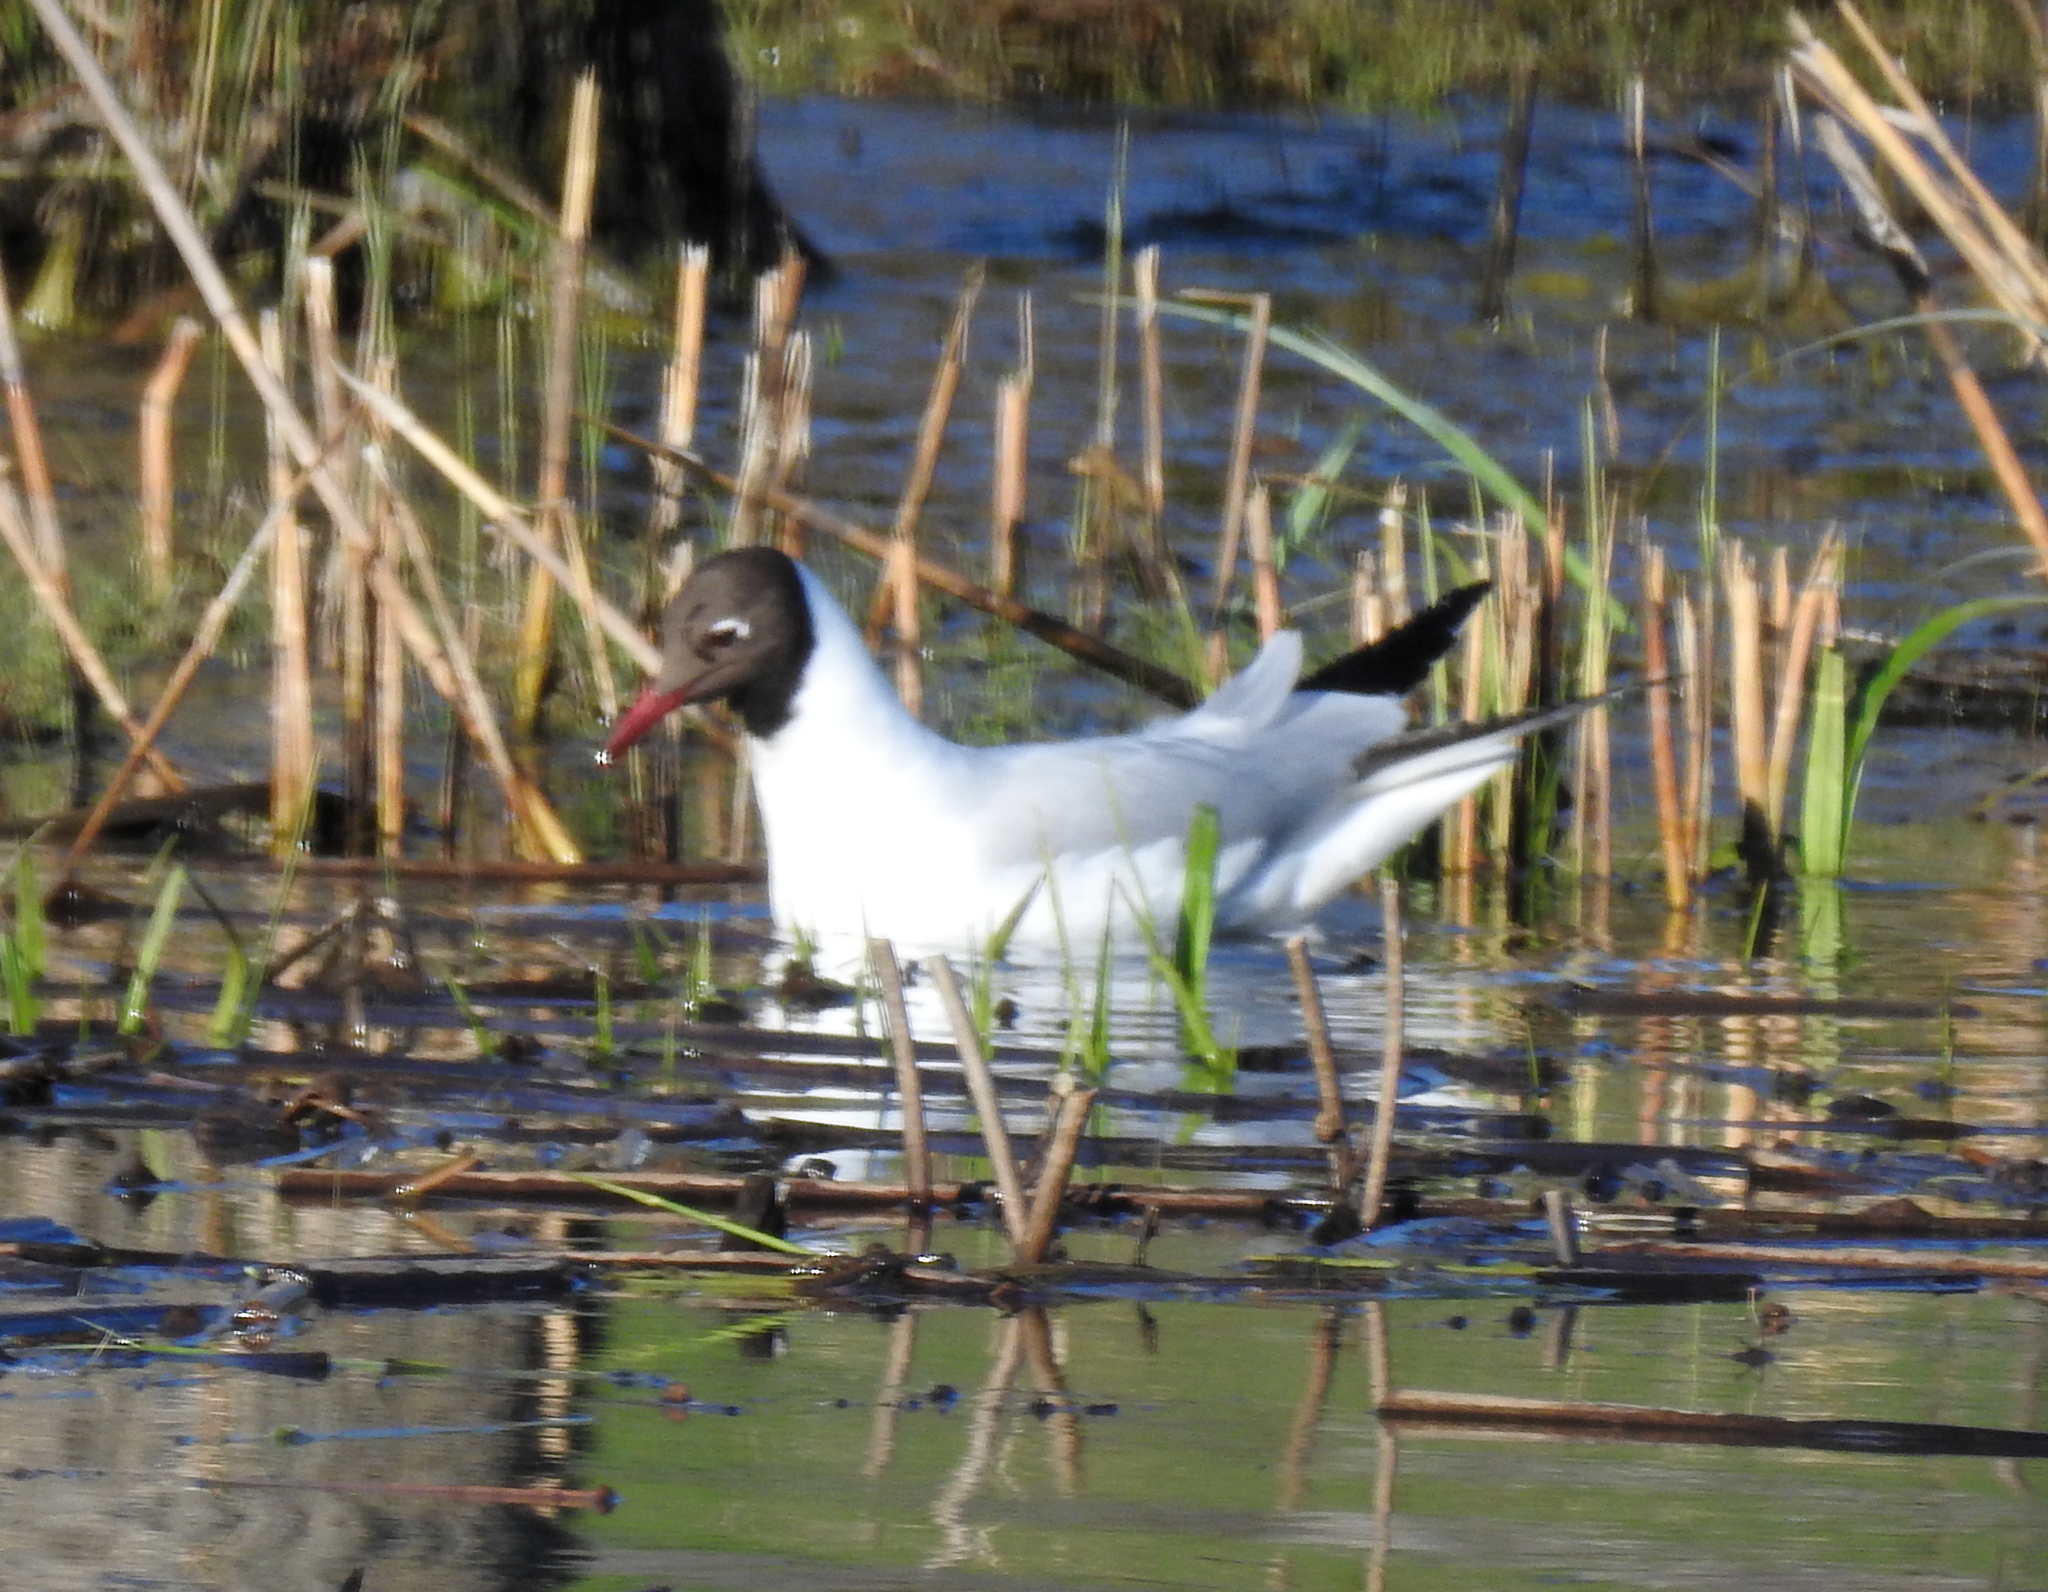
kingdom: Animalia
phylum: Chordata
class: Aves
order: Charadriiformes
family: Laridae
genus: Chroicocephalus
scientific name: Chroicocephalus ridibundus
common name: Black-headed gull
